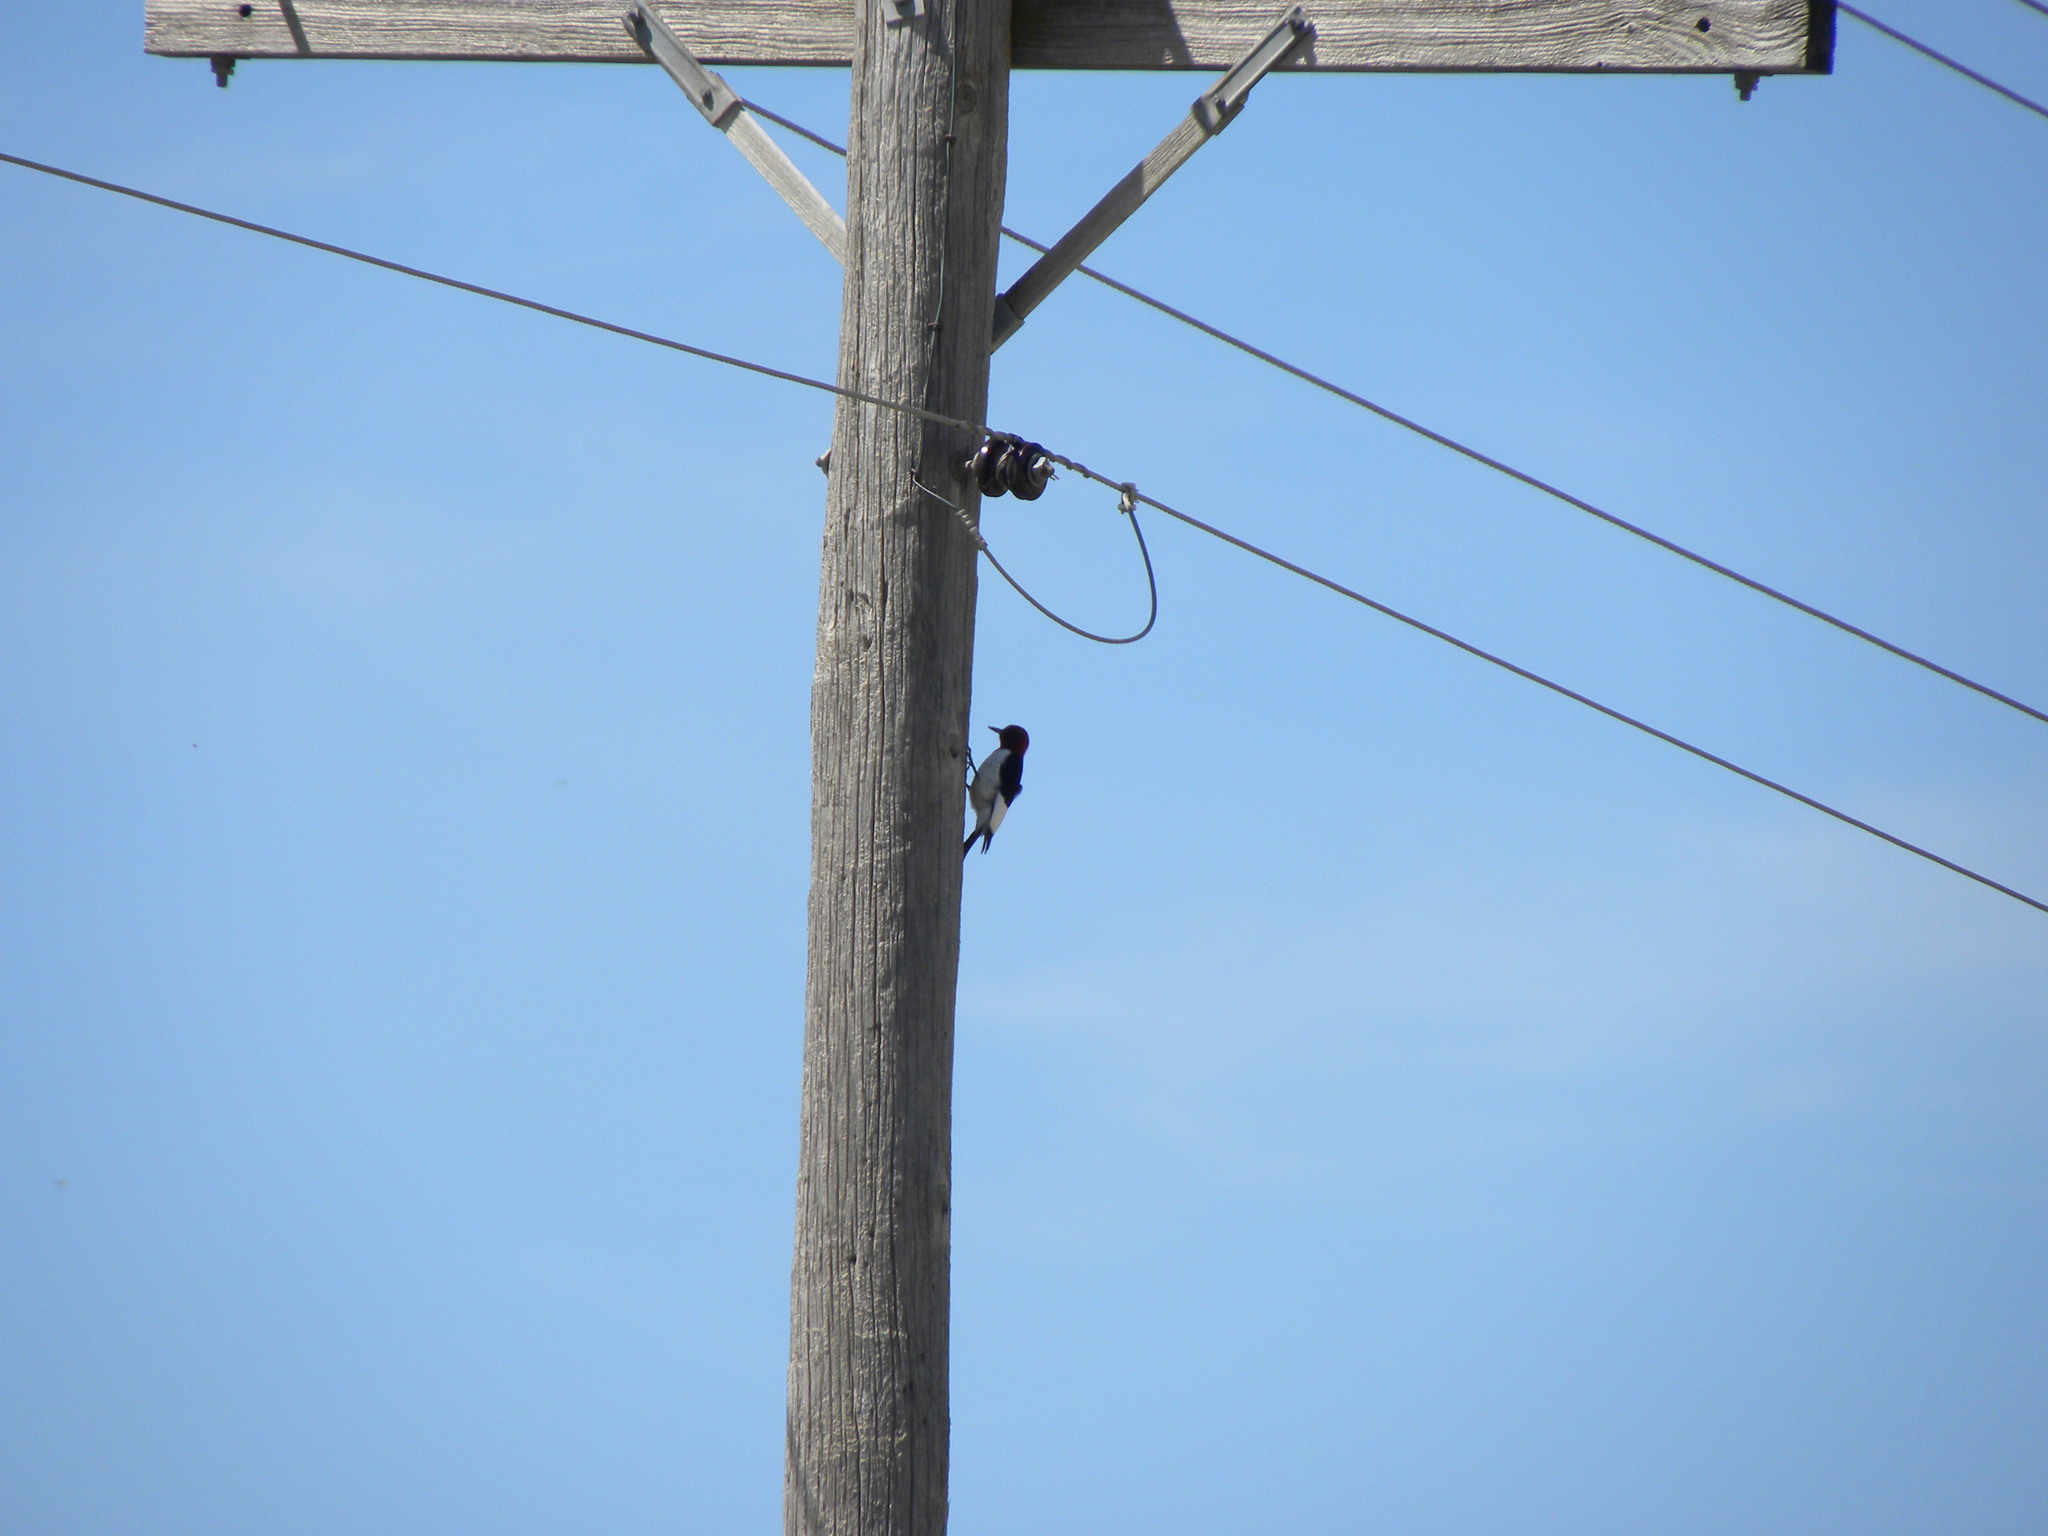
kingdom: Animalia
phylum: Chordata
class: Aves
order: Piciformes
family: Picidae
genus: Melanerpes
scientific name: Melanerpes erythrocephalus
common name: Red-headed woodpecker
